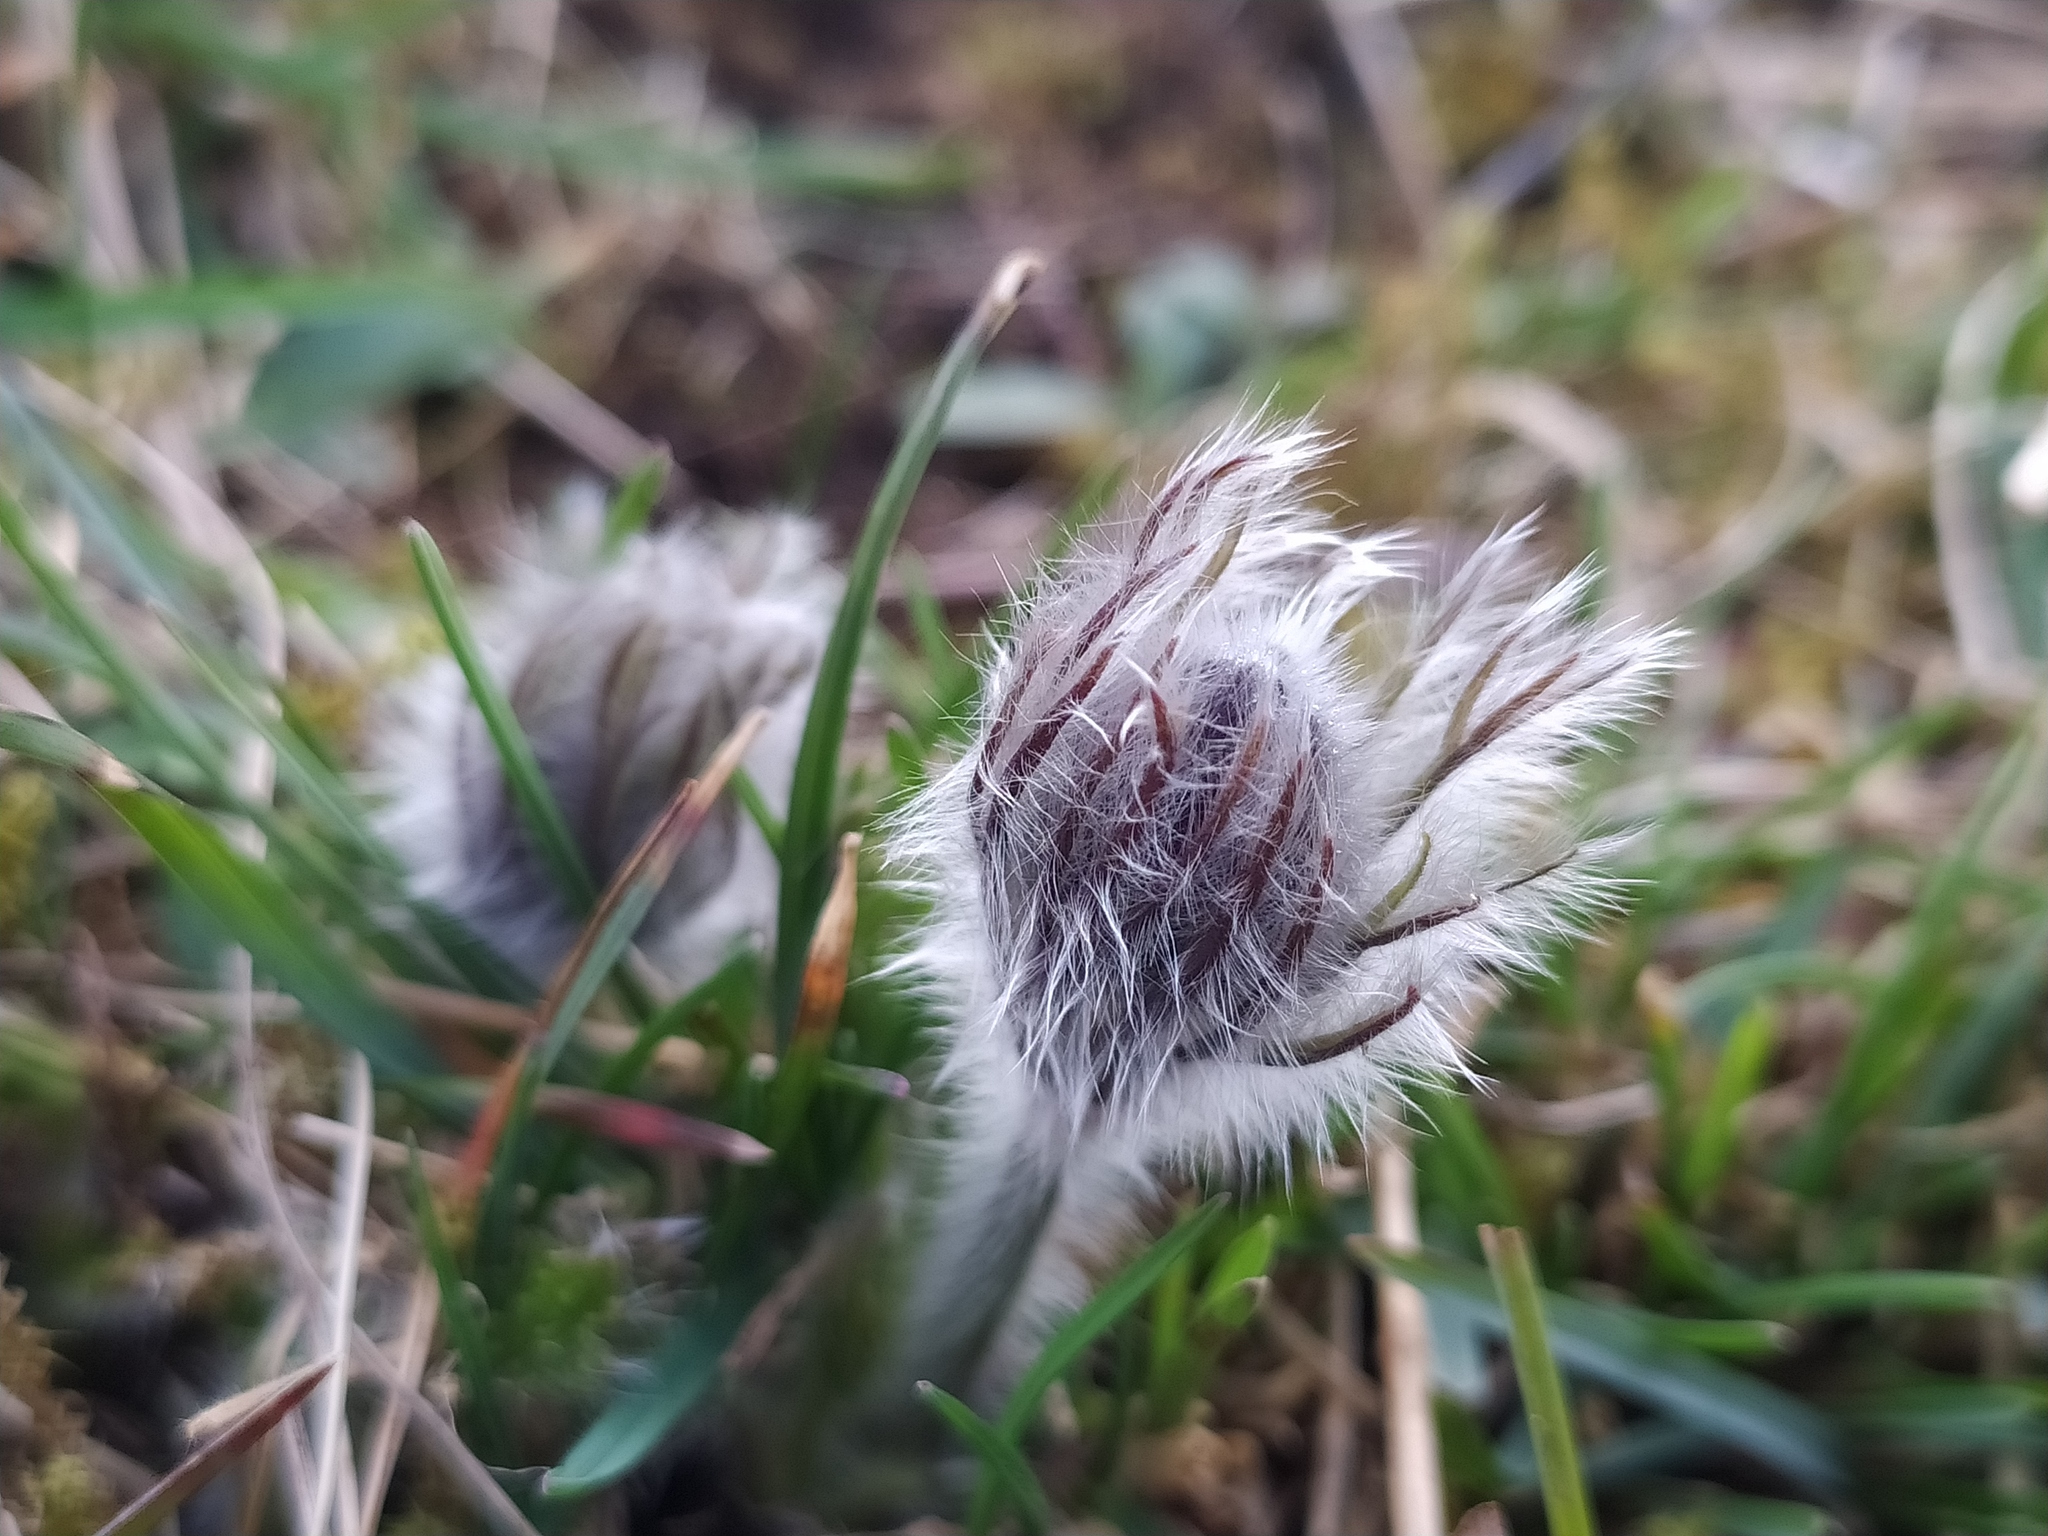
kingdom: Plantae
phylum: Tracheophyta
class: Magnoliopsida
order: Ranunculales
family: Ranunculaceae
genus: Pulsatilla
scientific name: Pulsatilla vulgaris
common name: Pasqueflower
